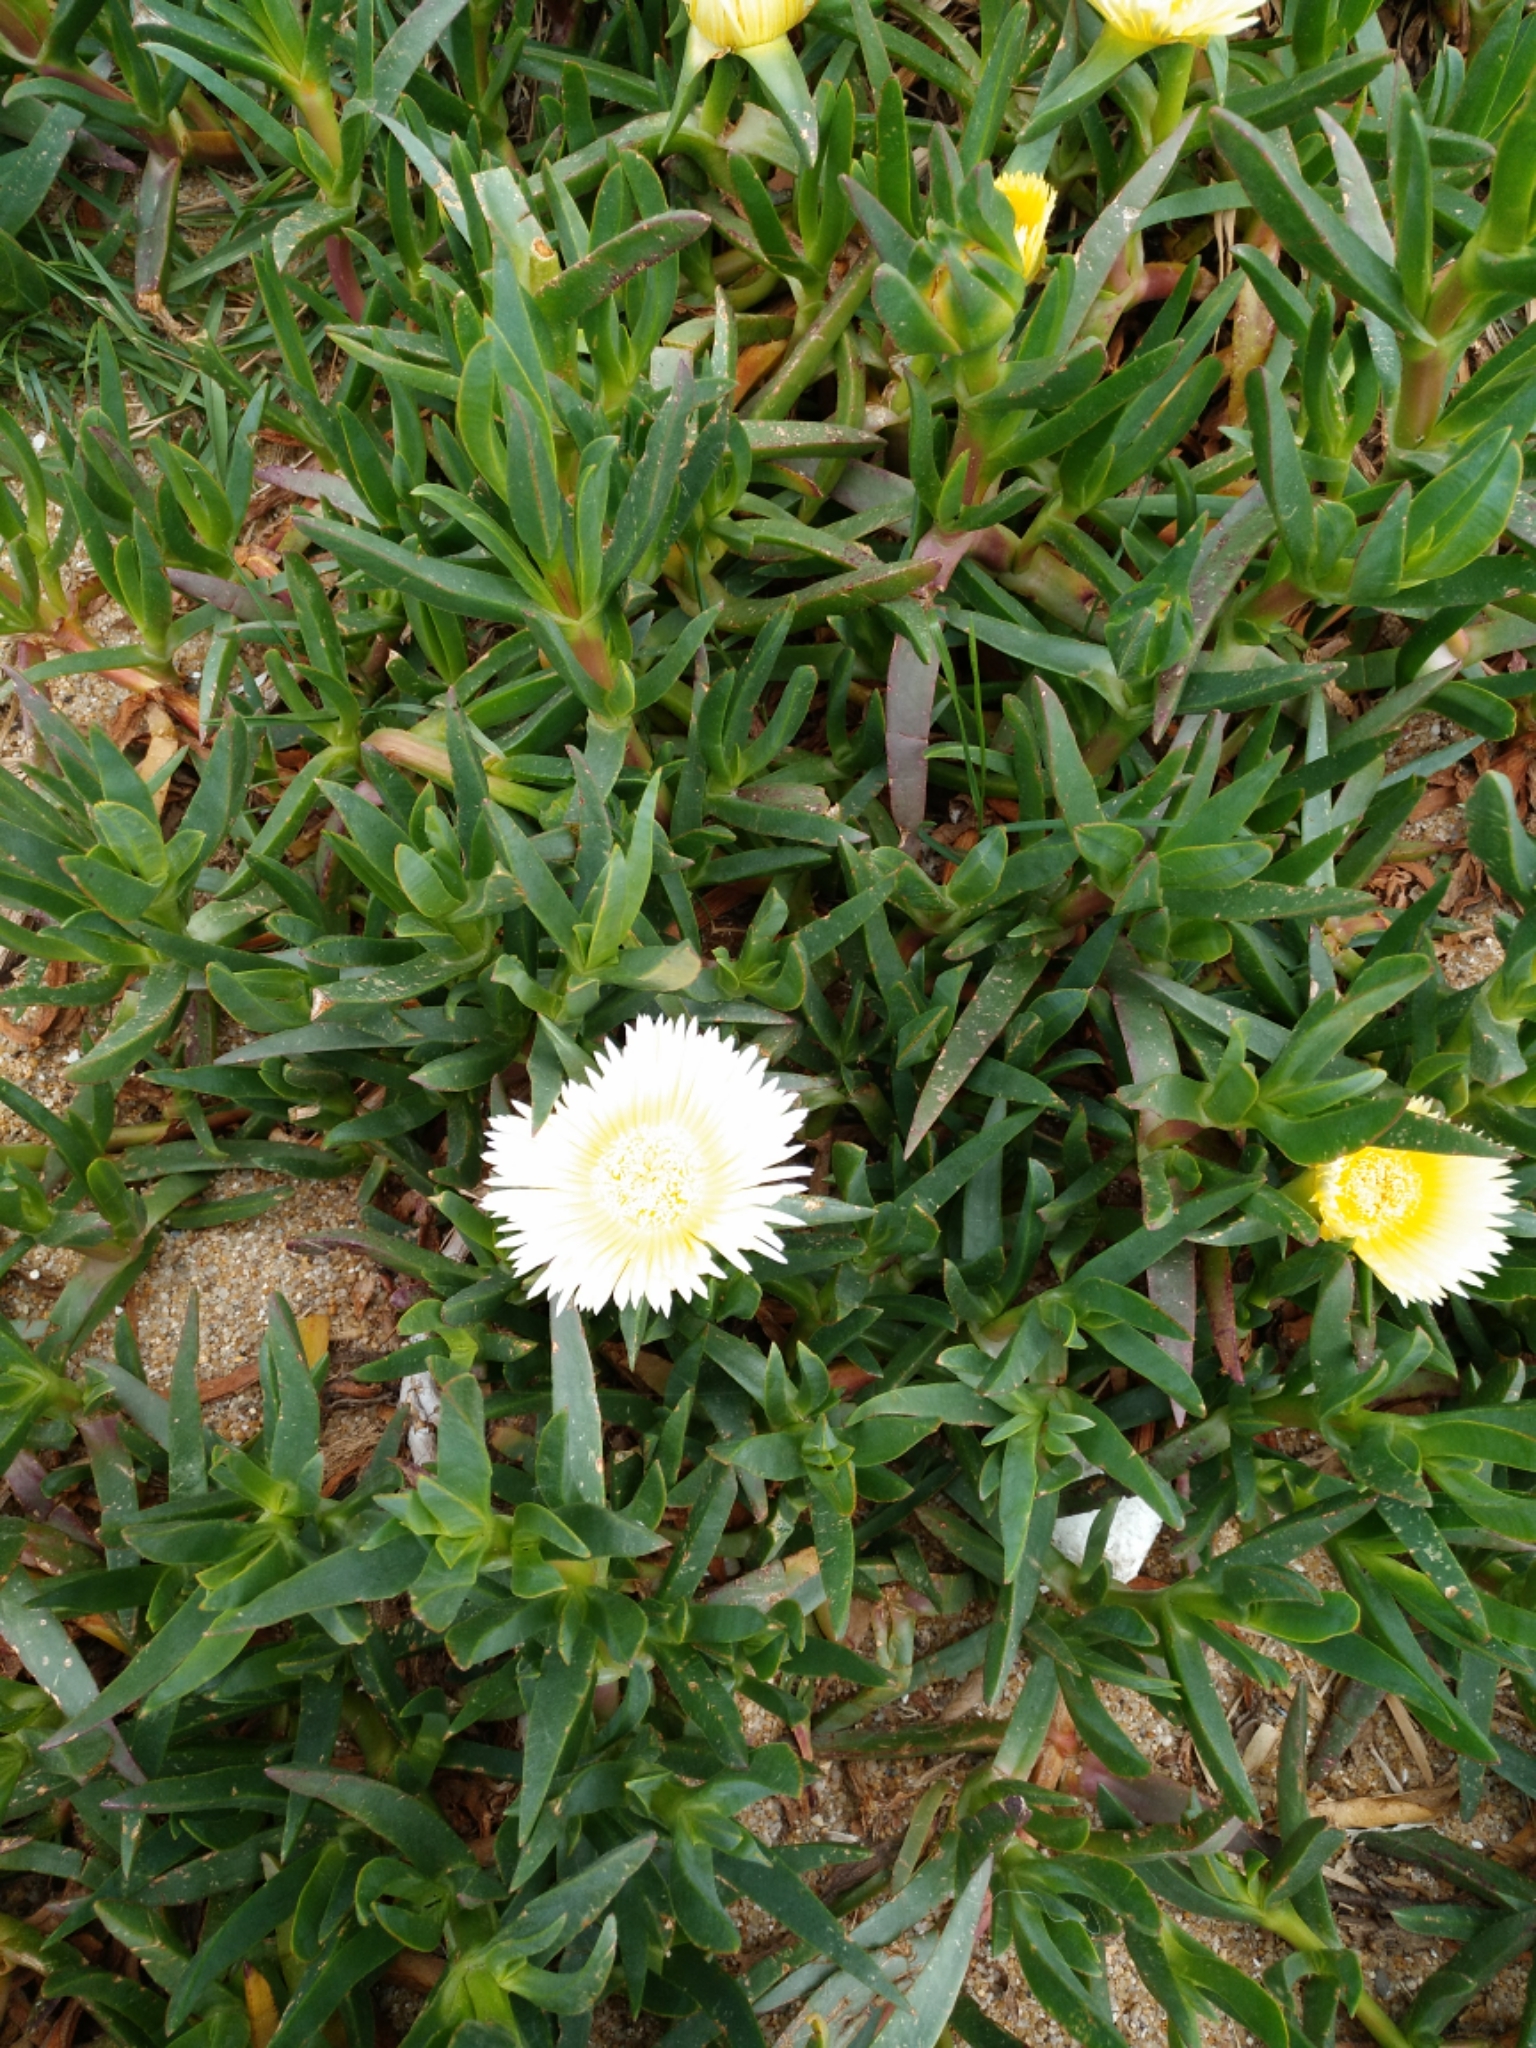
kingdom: Plantae
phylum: Tracheophyta
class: Magnoliopsida
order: Caryophyllales
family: Aizoaceae
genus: Carpobrotus
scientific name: Carpobrotus edulis
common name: Hottentot-fig
